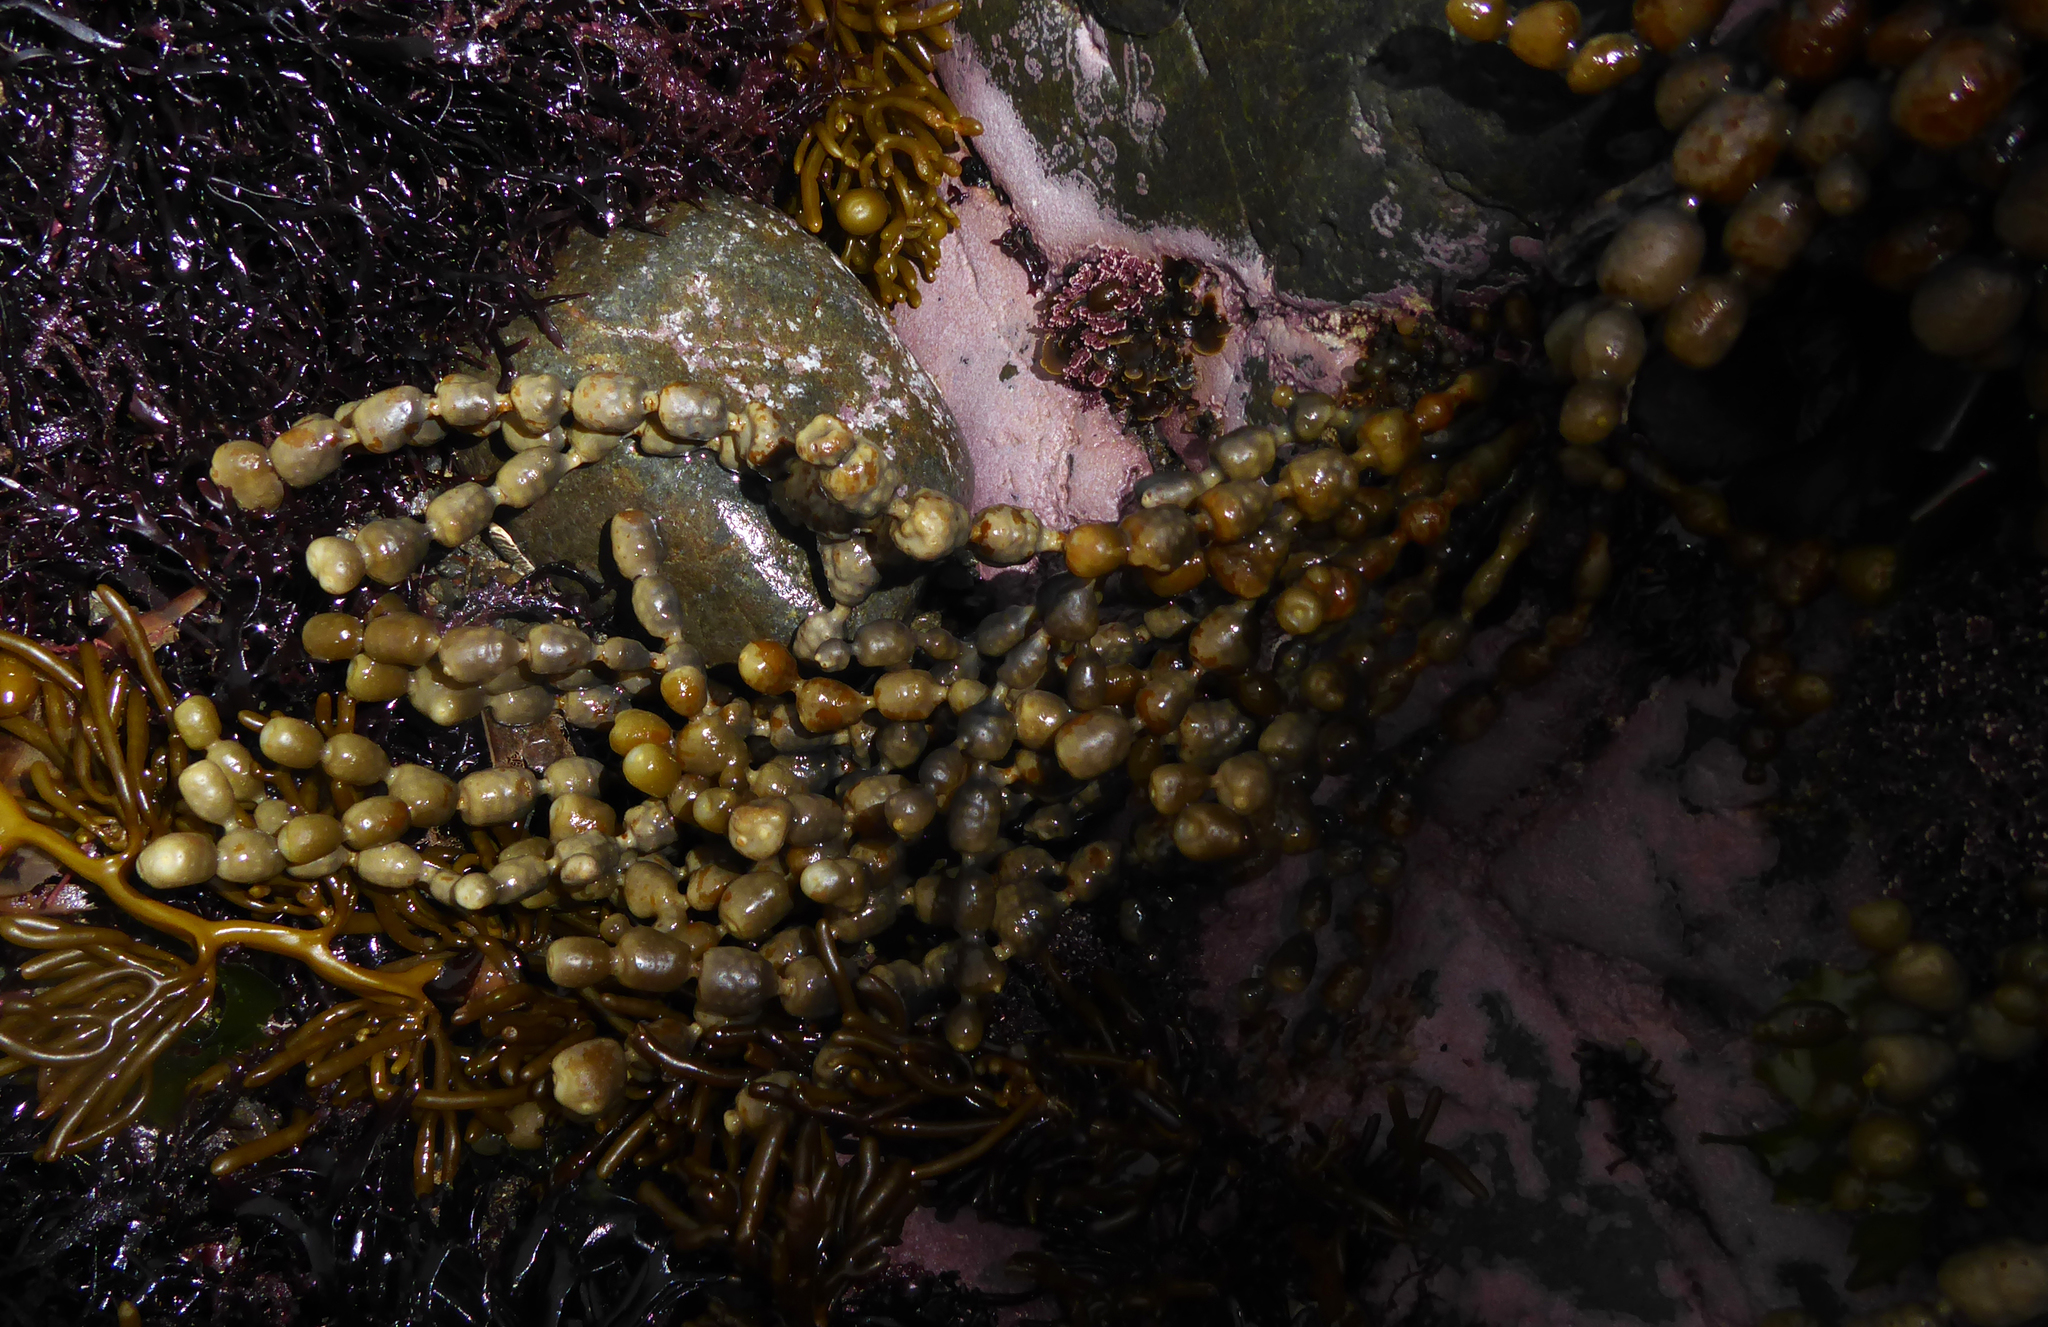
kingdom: Chromista
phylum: Ochrophyta
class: Phaeophyceae
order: Fucales
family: Hormosiraceae
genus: Hormosira
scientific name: Hormosira banksii
